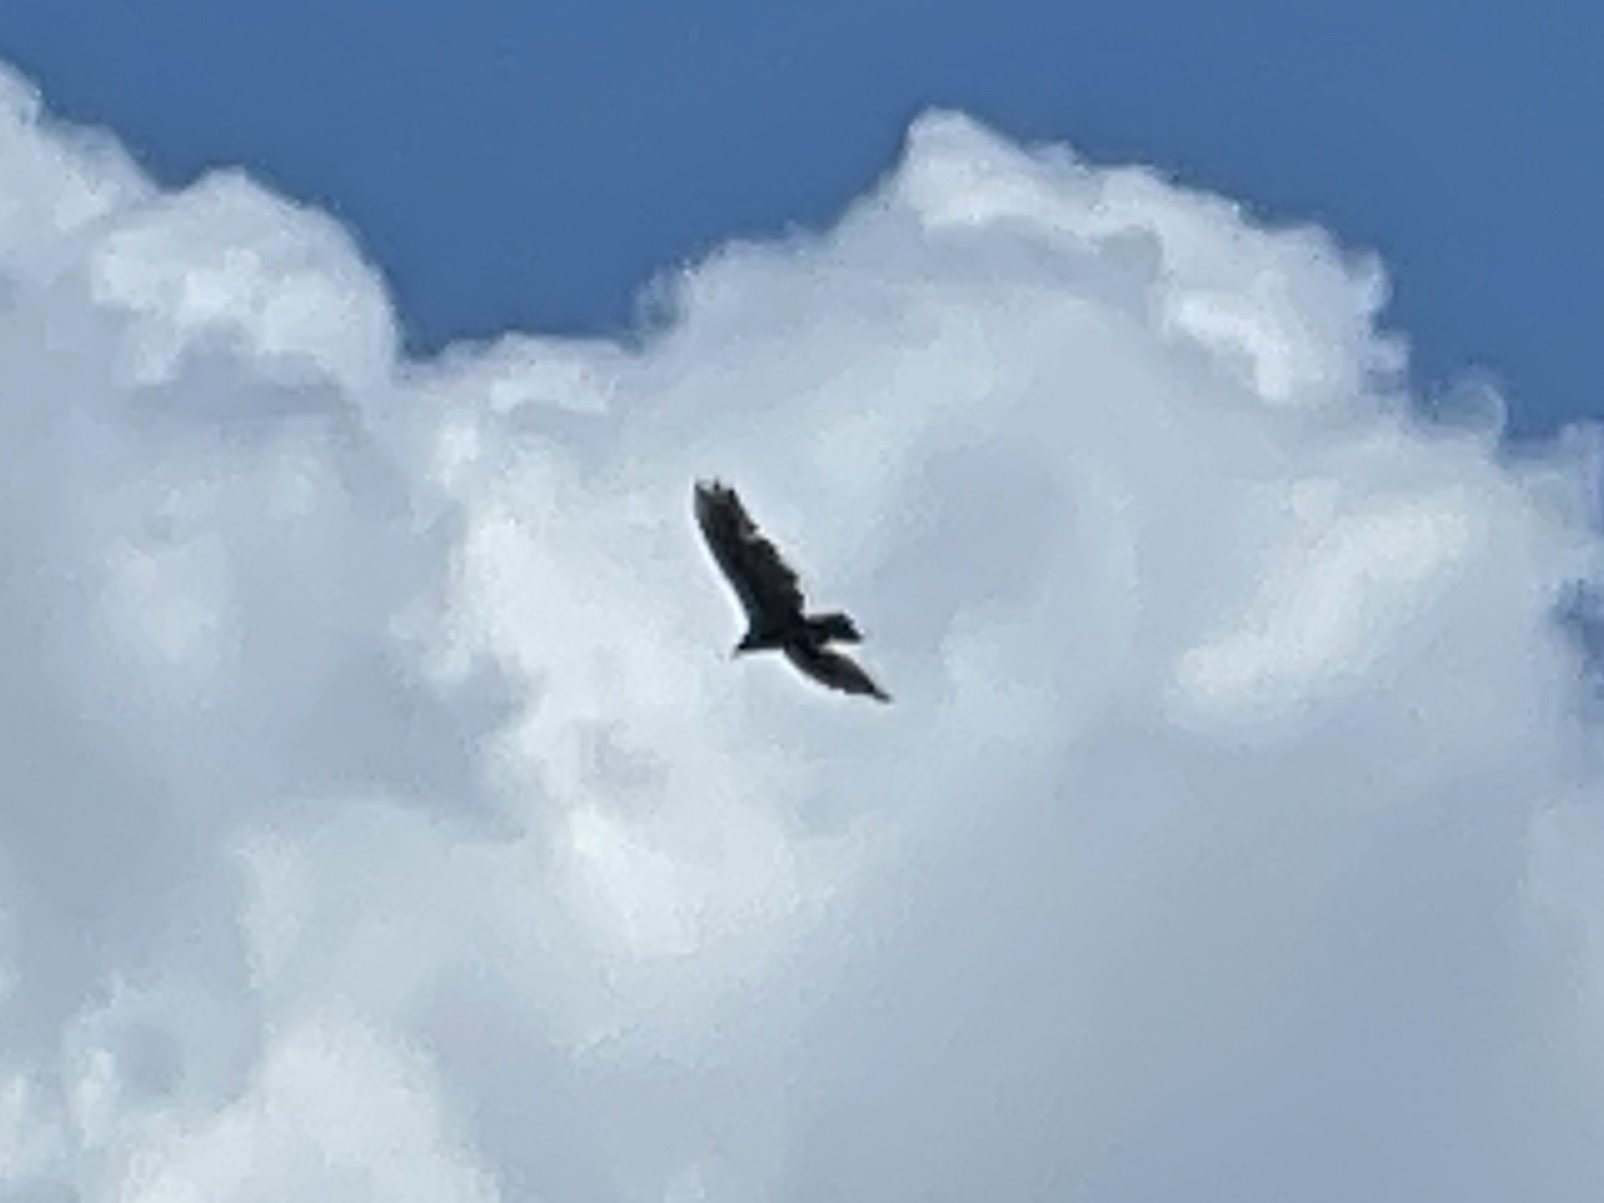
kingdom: Animalia
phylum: Chordata
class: Aves
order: Accipitriformes
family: Cathartidae
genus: Cathartes
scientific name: Cathartes aura
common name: Turkey vulture
